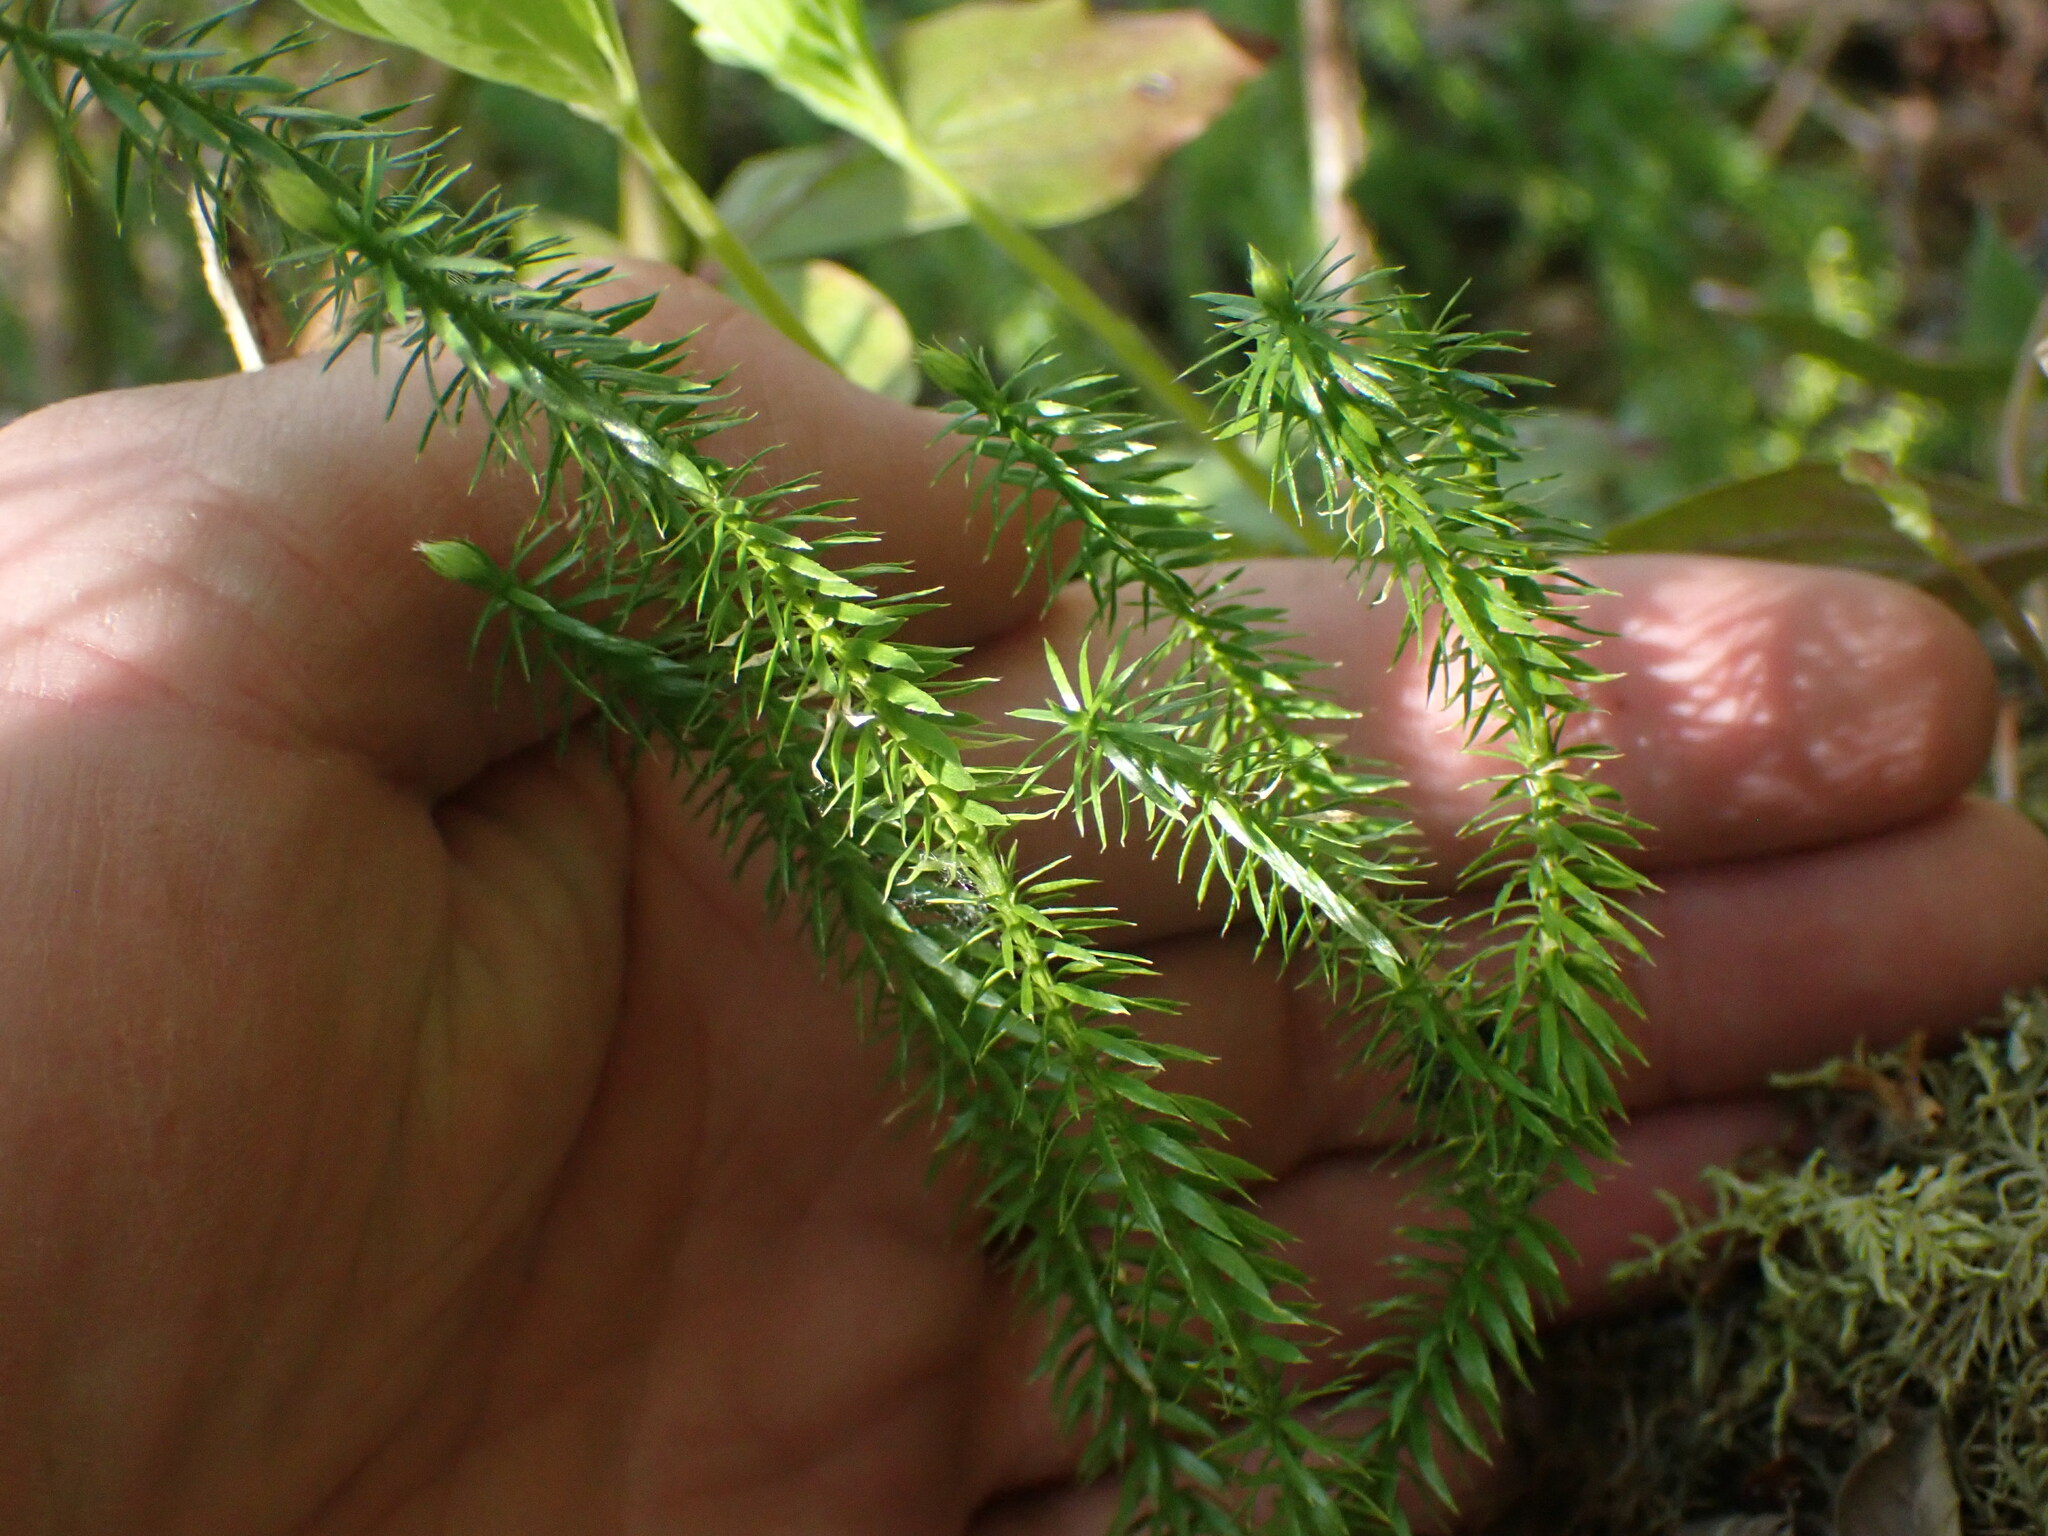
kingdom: Plantae
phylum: Tracheophyta
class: Lycopodiopsida
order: Lycopodiales
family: Lycopodiaceae
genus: Spinulum
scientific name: Spinulum annotinum
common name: Interrupted club-moss
